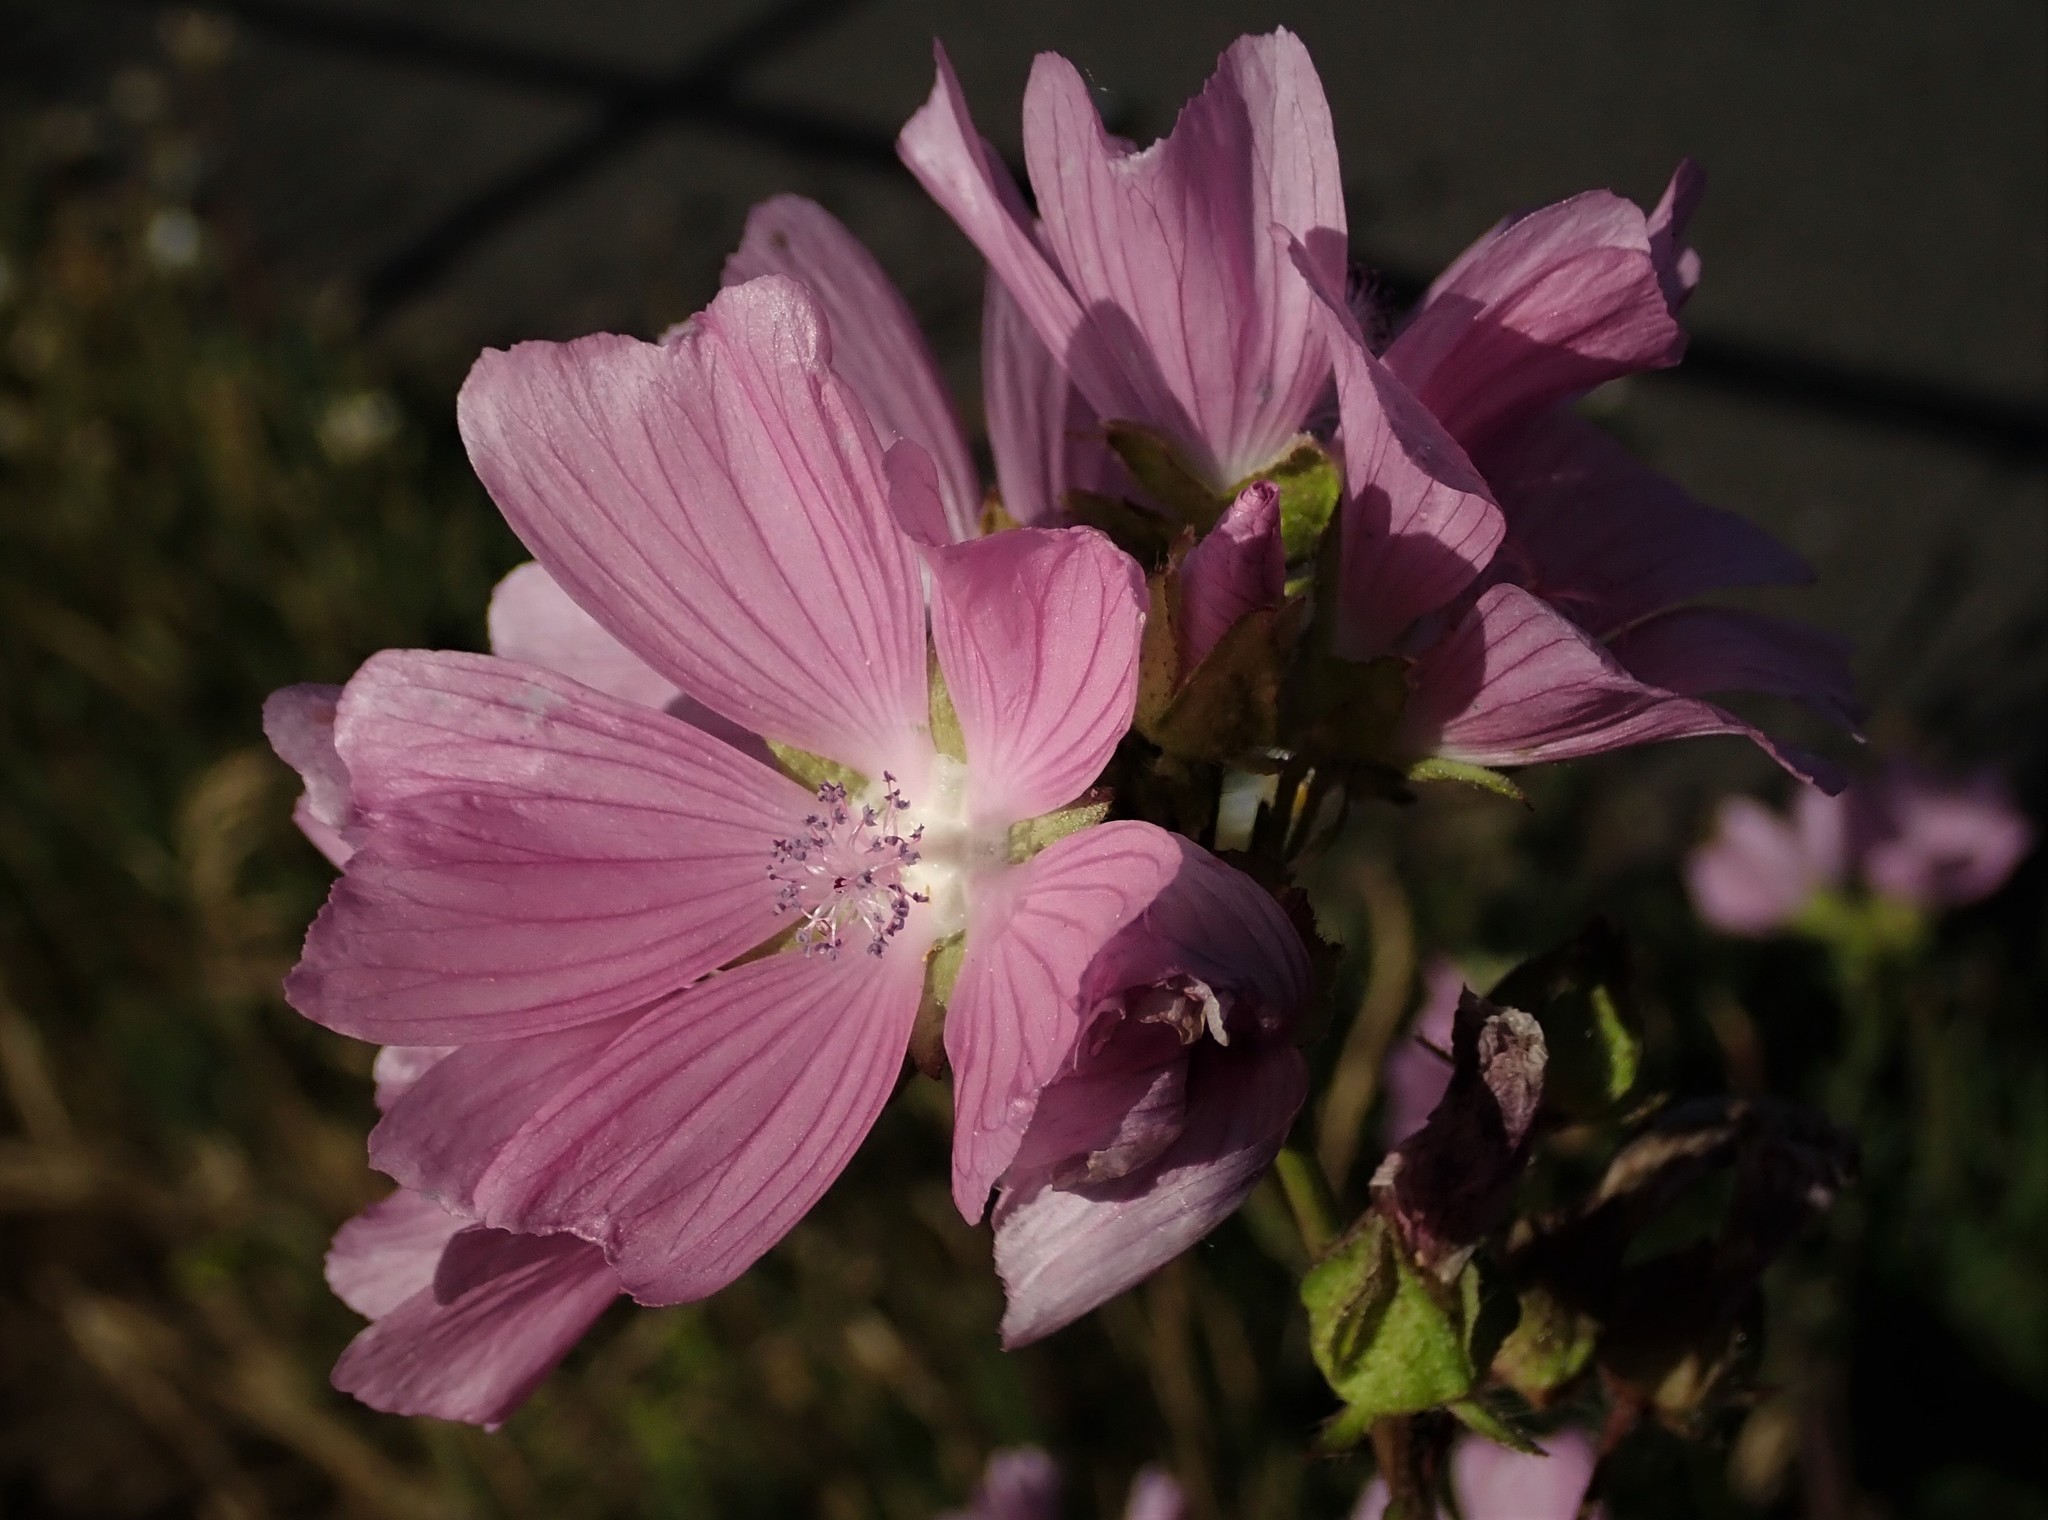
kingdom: Plantae
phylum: Tracheophyta
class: Magnoliopsida
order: Malvales
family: Malvaceae
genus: Malva
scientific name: Malva moschata
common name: Musk mallow
